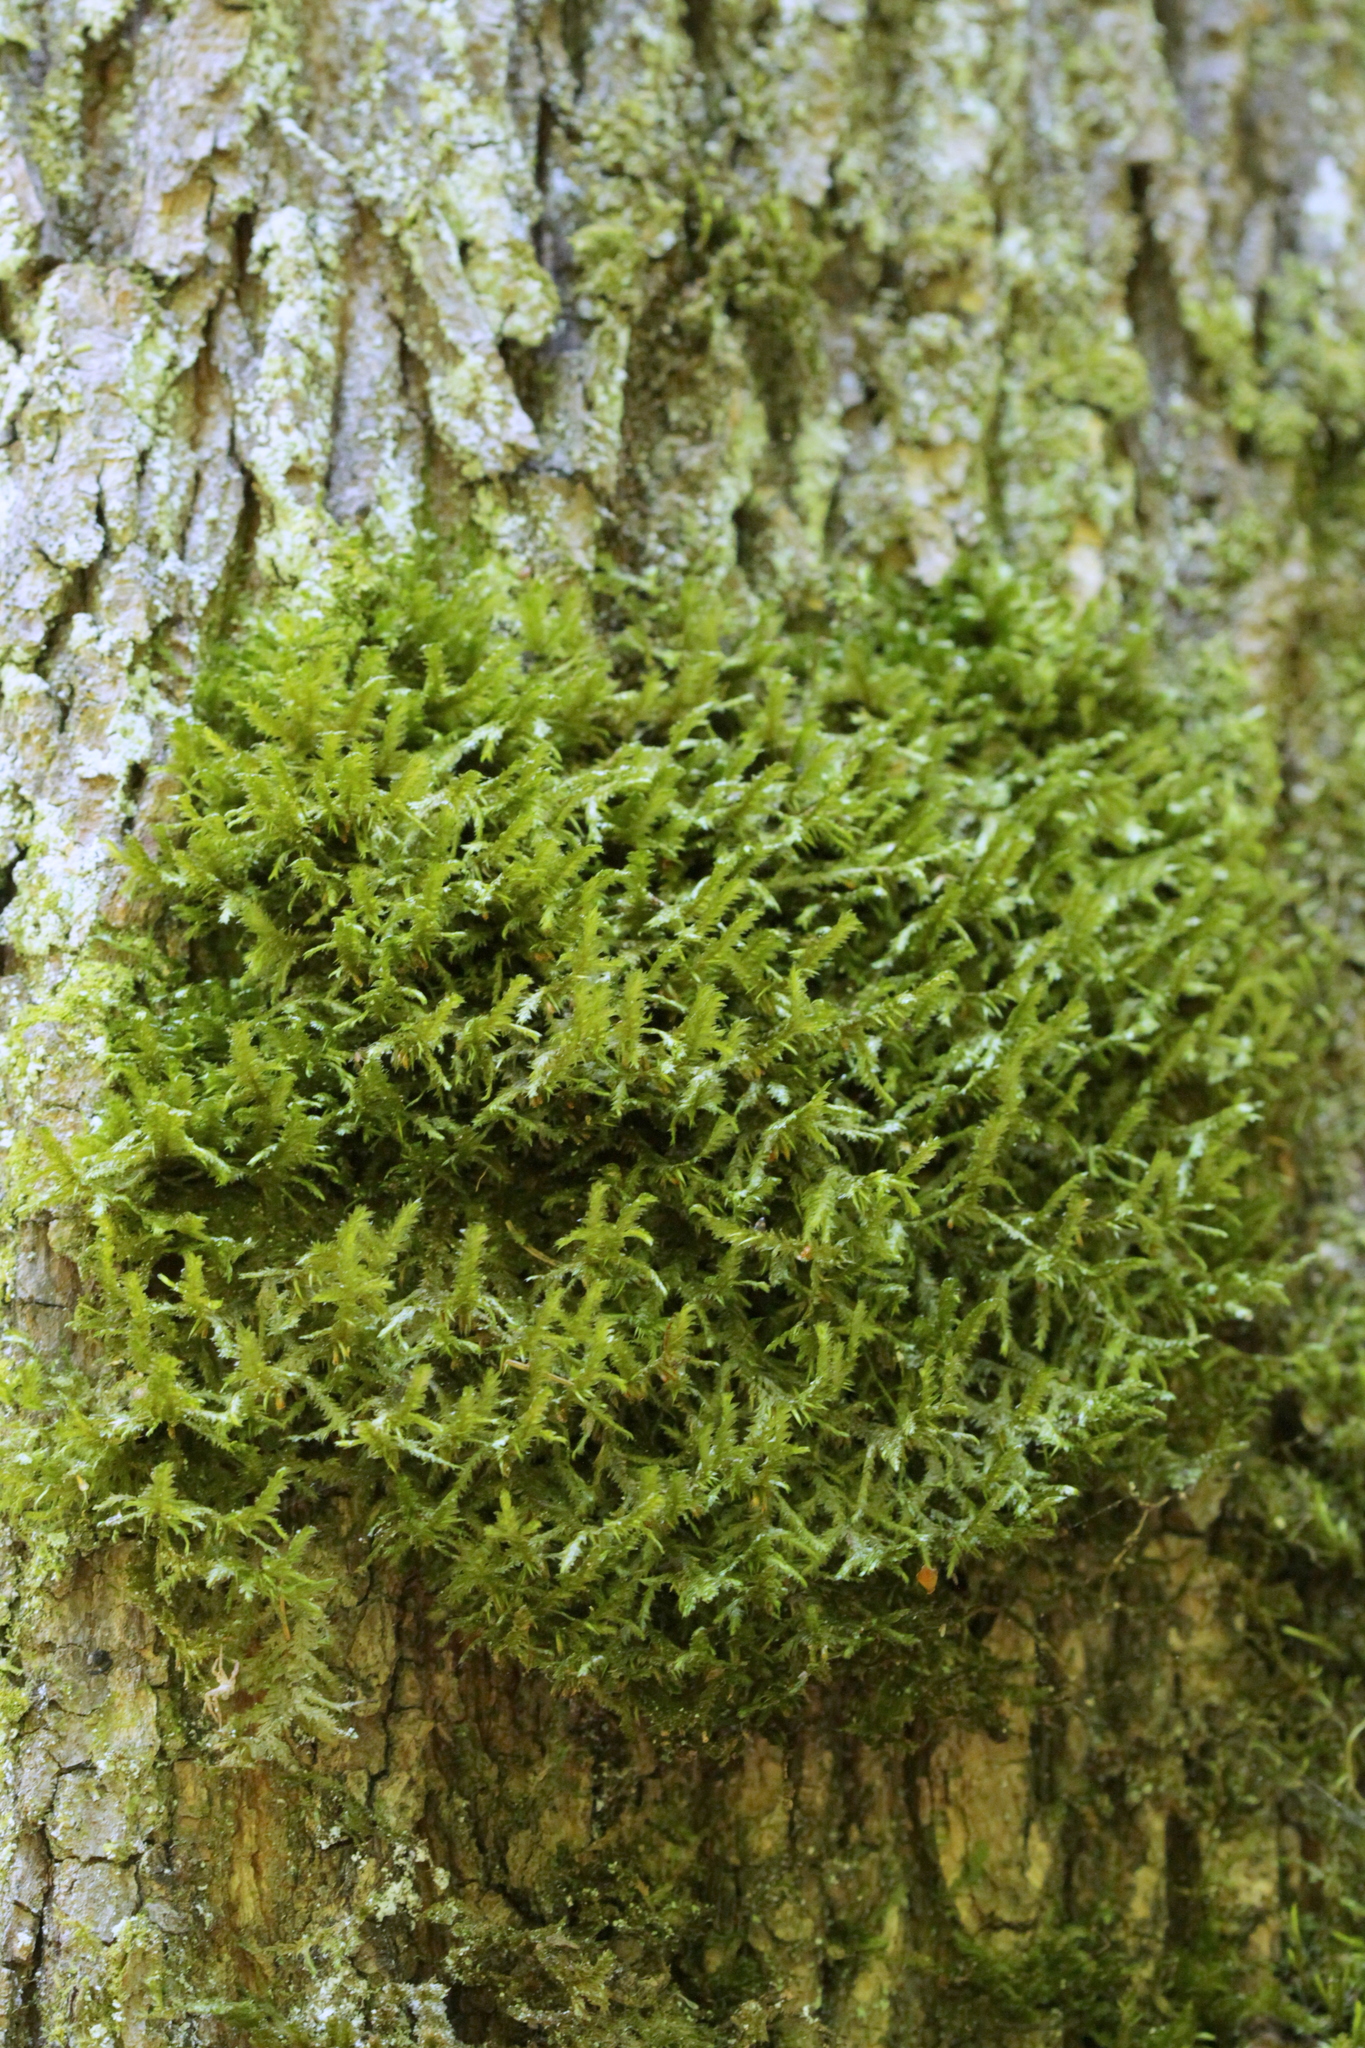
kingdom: Plantae
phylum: Bryophyta
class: Bryopsida
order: Hypnales
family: Neckeraceae
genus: Neckera
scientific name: Neckera pennata
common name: Feathery neckera
